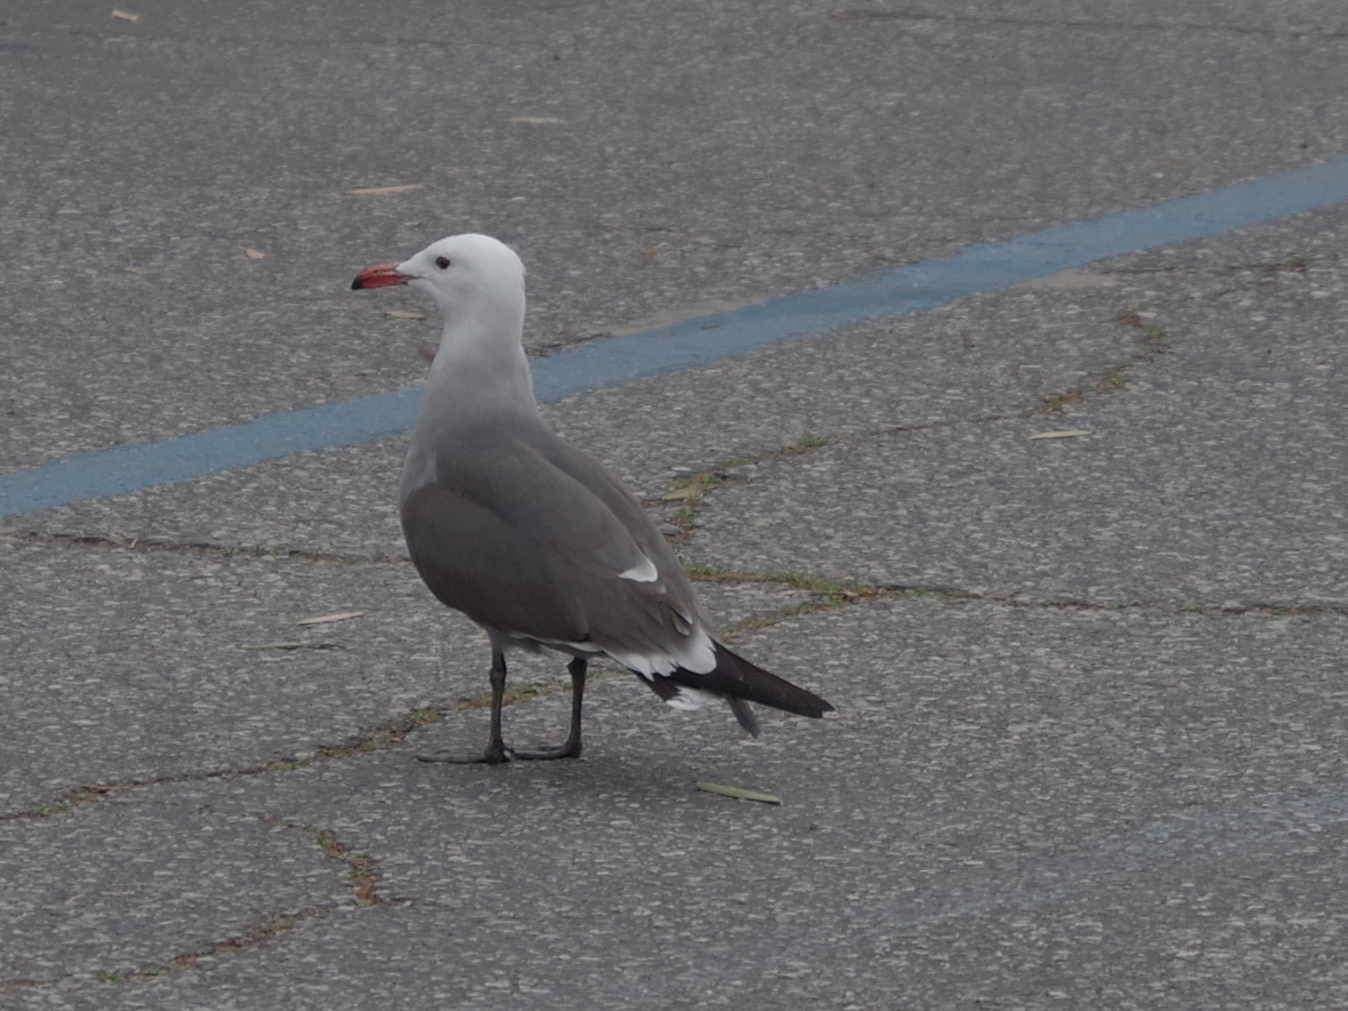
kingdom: Animalia
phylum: Chordata
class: Aves
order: Charadriiformes
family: Laridae
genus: Larus
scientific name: Larus heermanni
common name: Heermann's gull
